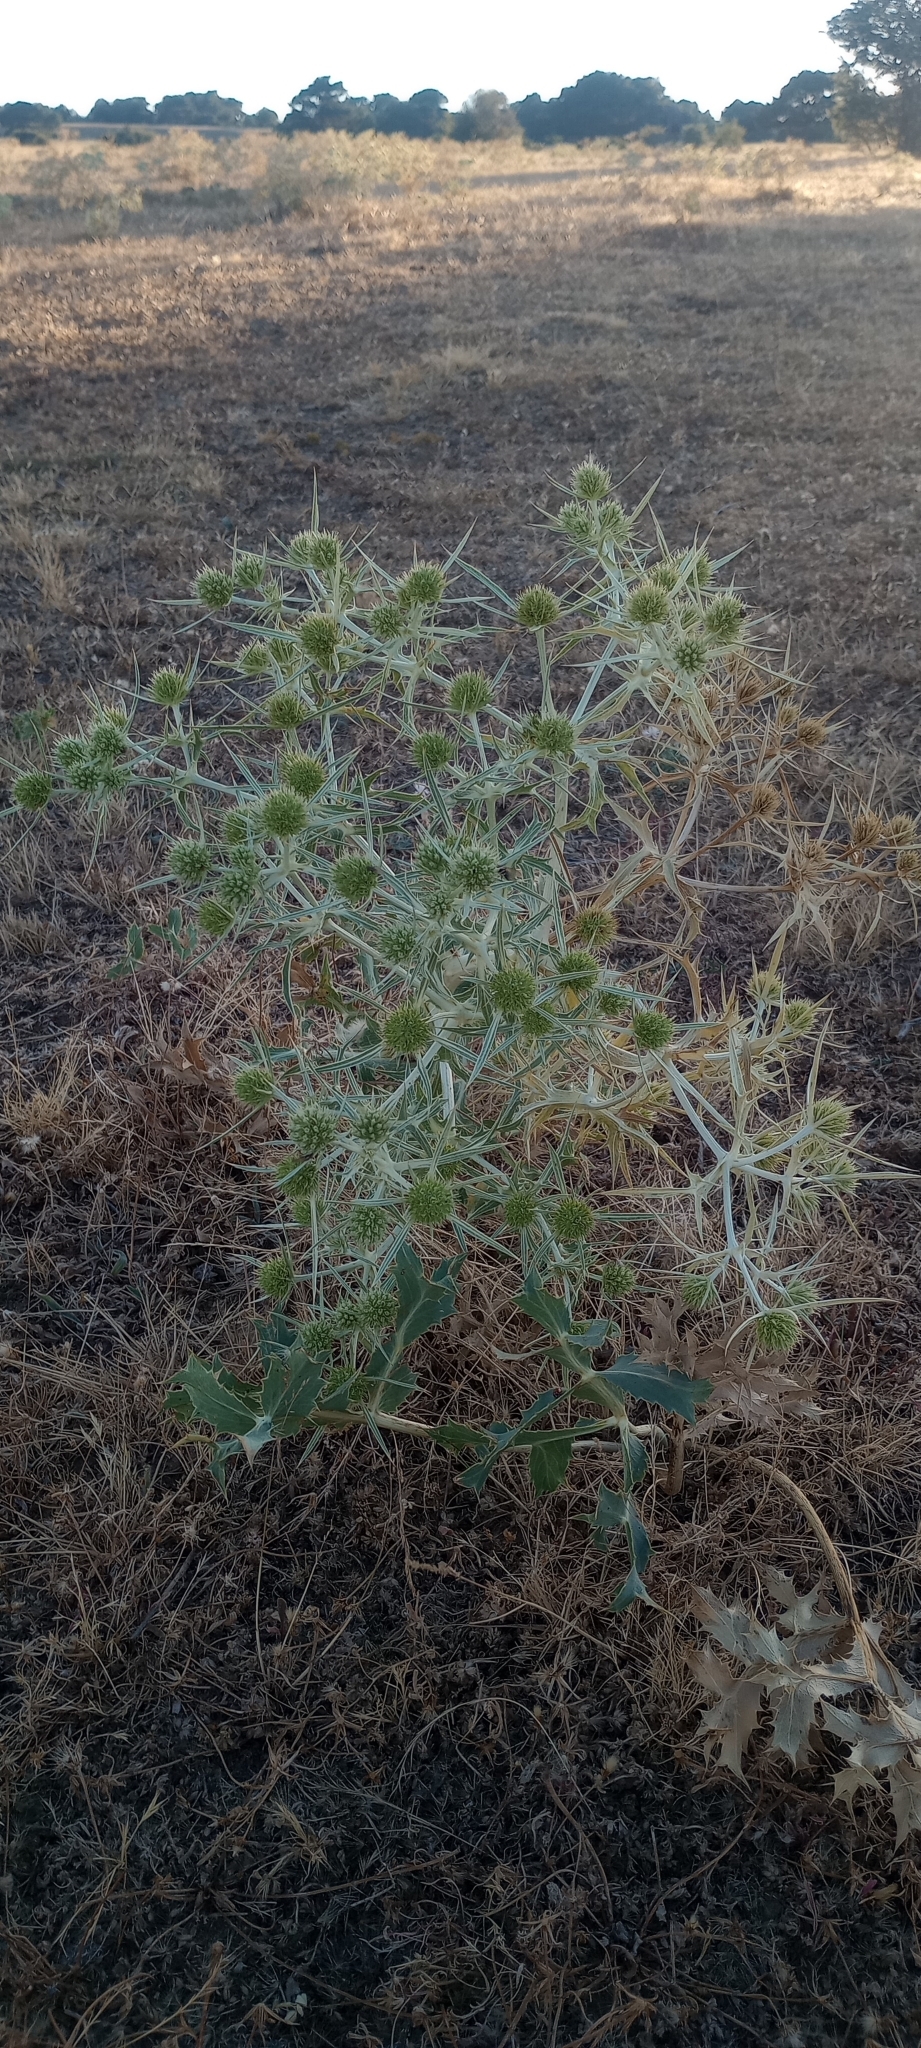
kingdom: Plantae
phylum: Tracheophyta
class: Magnoliopsida
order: Apiales
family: Apiaceae
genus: Eryngium
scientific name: Eryngium campestre
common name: Field eryngo
